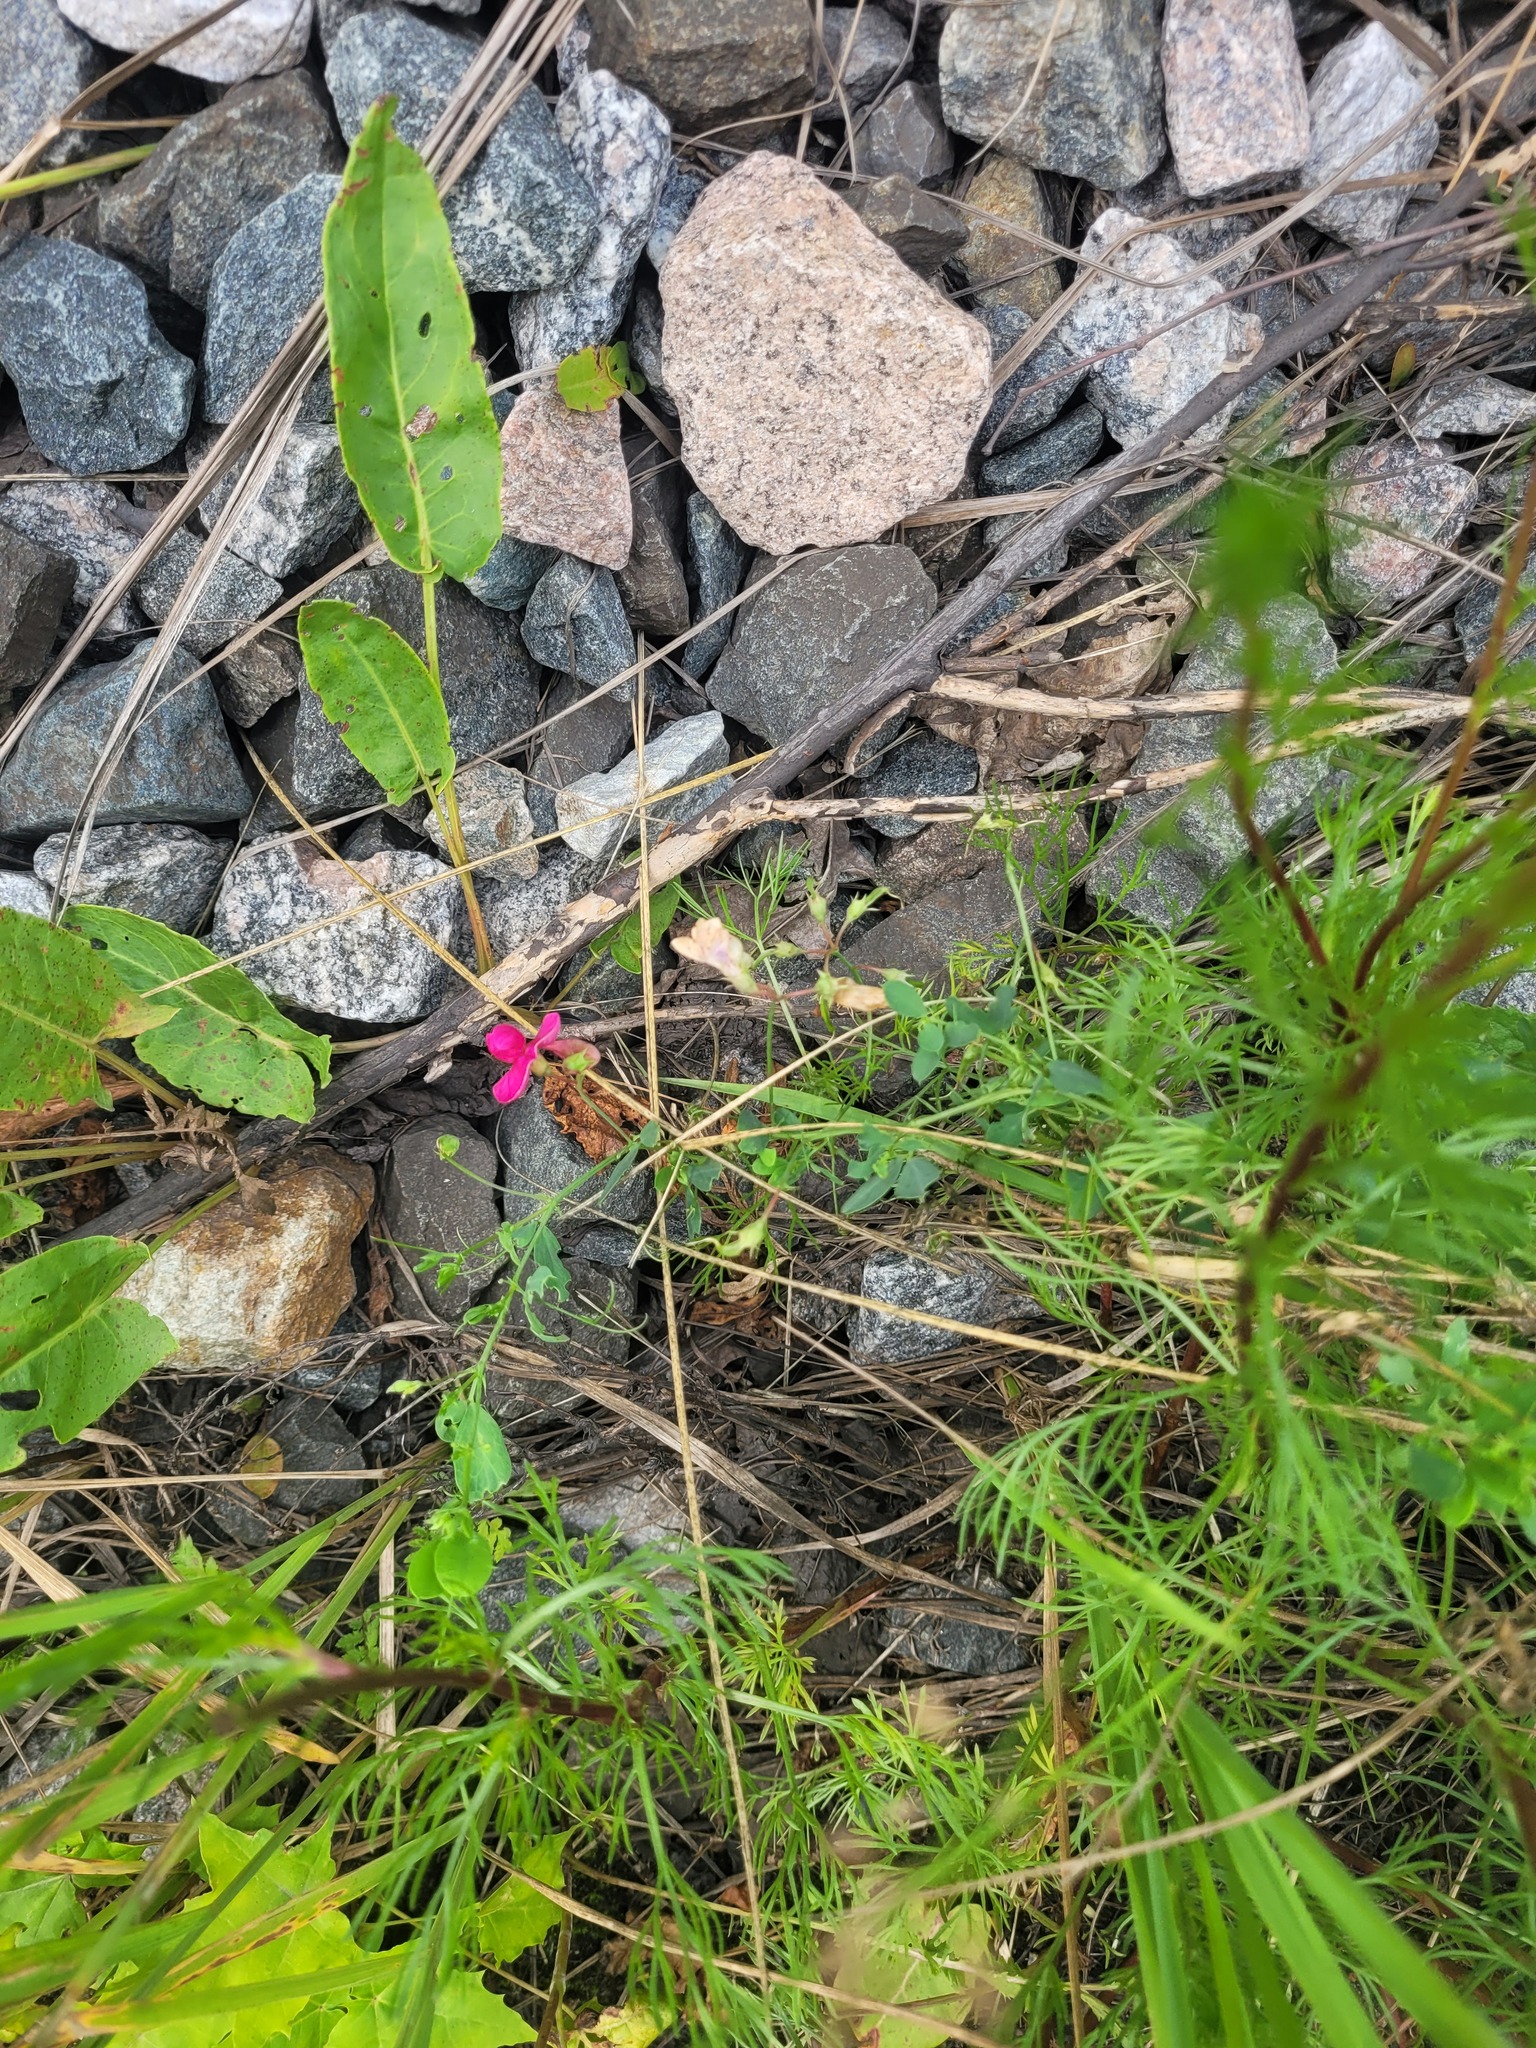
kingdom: Plantae
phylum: Tracheophyta
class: Magnoliopsida
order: Fabales
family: Fabaceae
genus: Lathyrus
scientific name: Lathyrus tuberosus
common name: Tuberous pea
